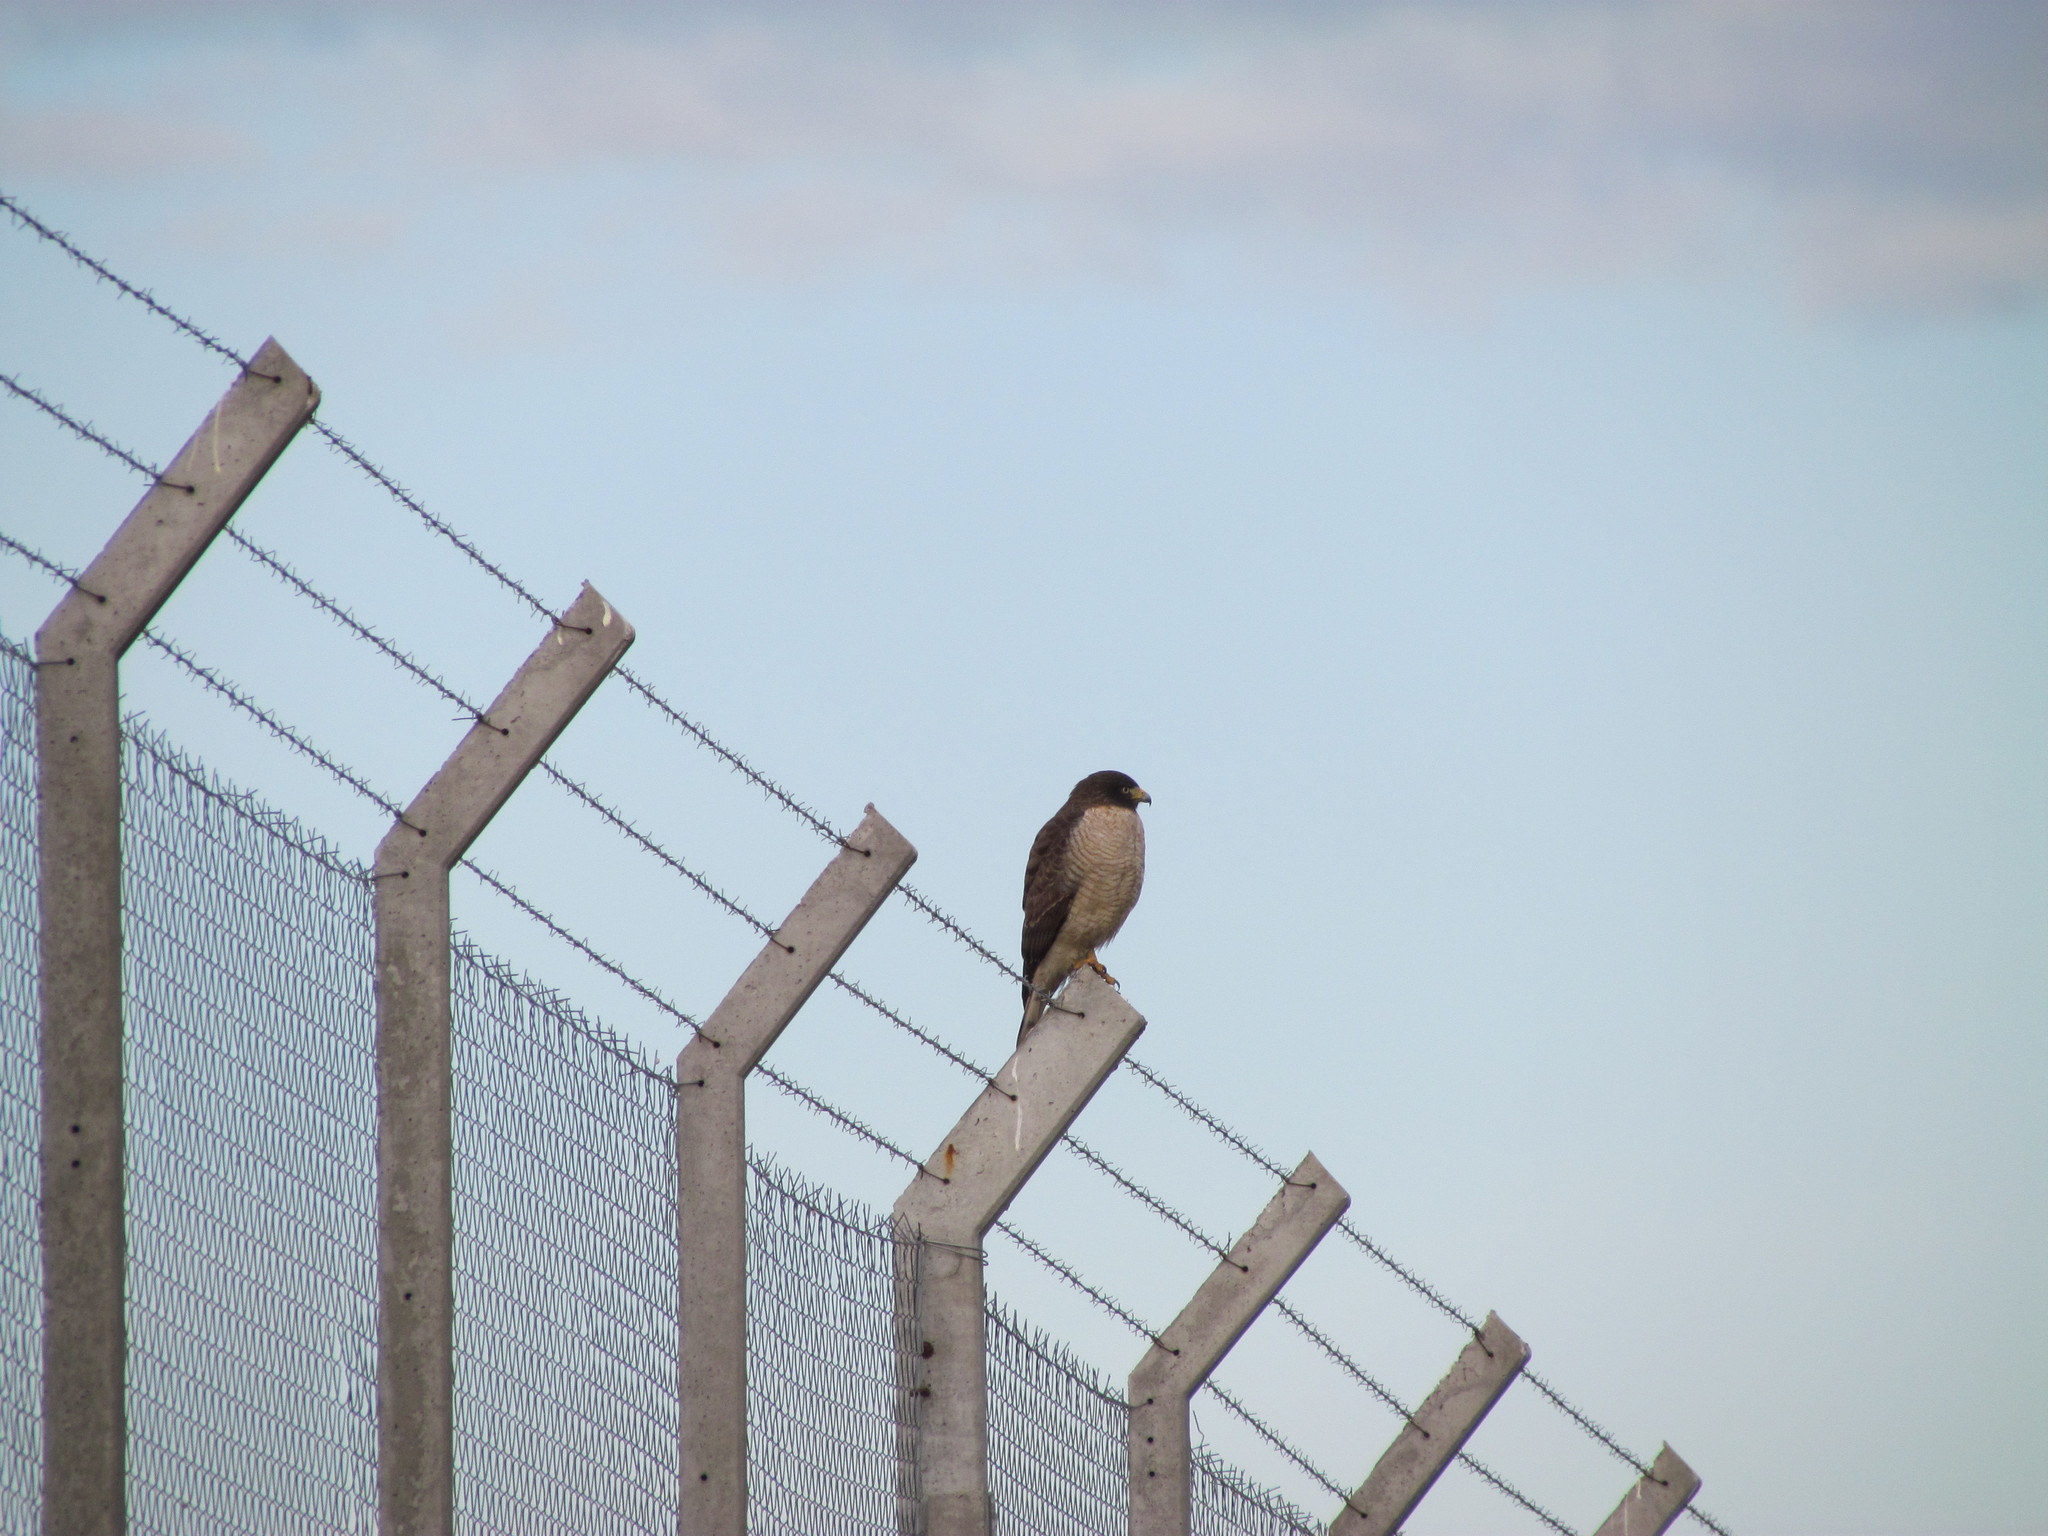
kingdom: Animalia
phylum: Chordata
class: Aves
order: Accipitriformes
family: Accipitridae
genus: Rupornis
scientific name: Rupornis magnirostris
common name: Roadside hawk
